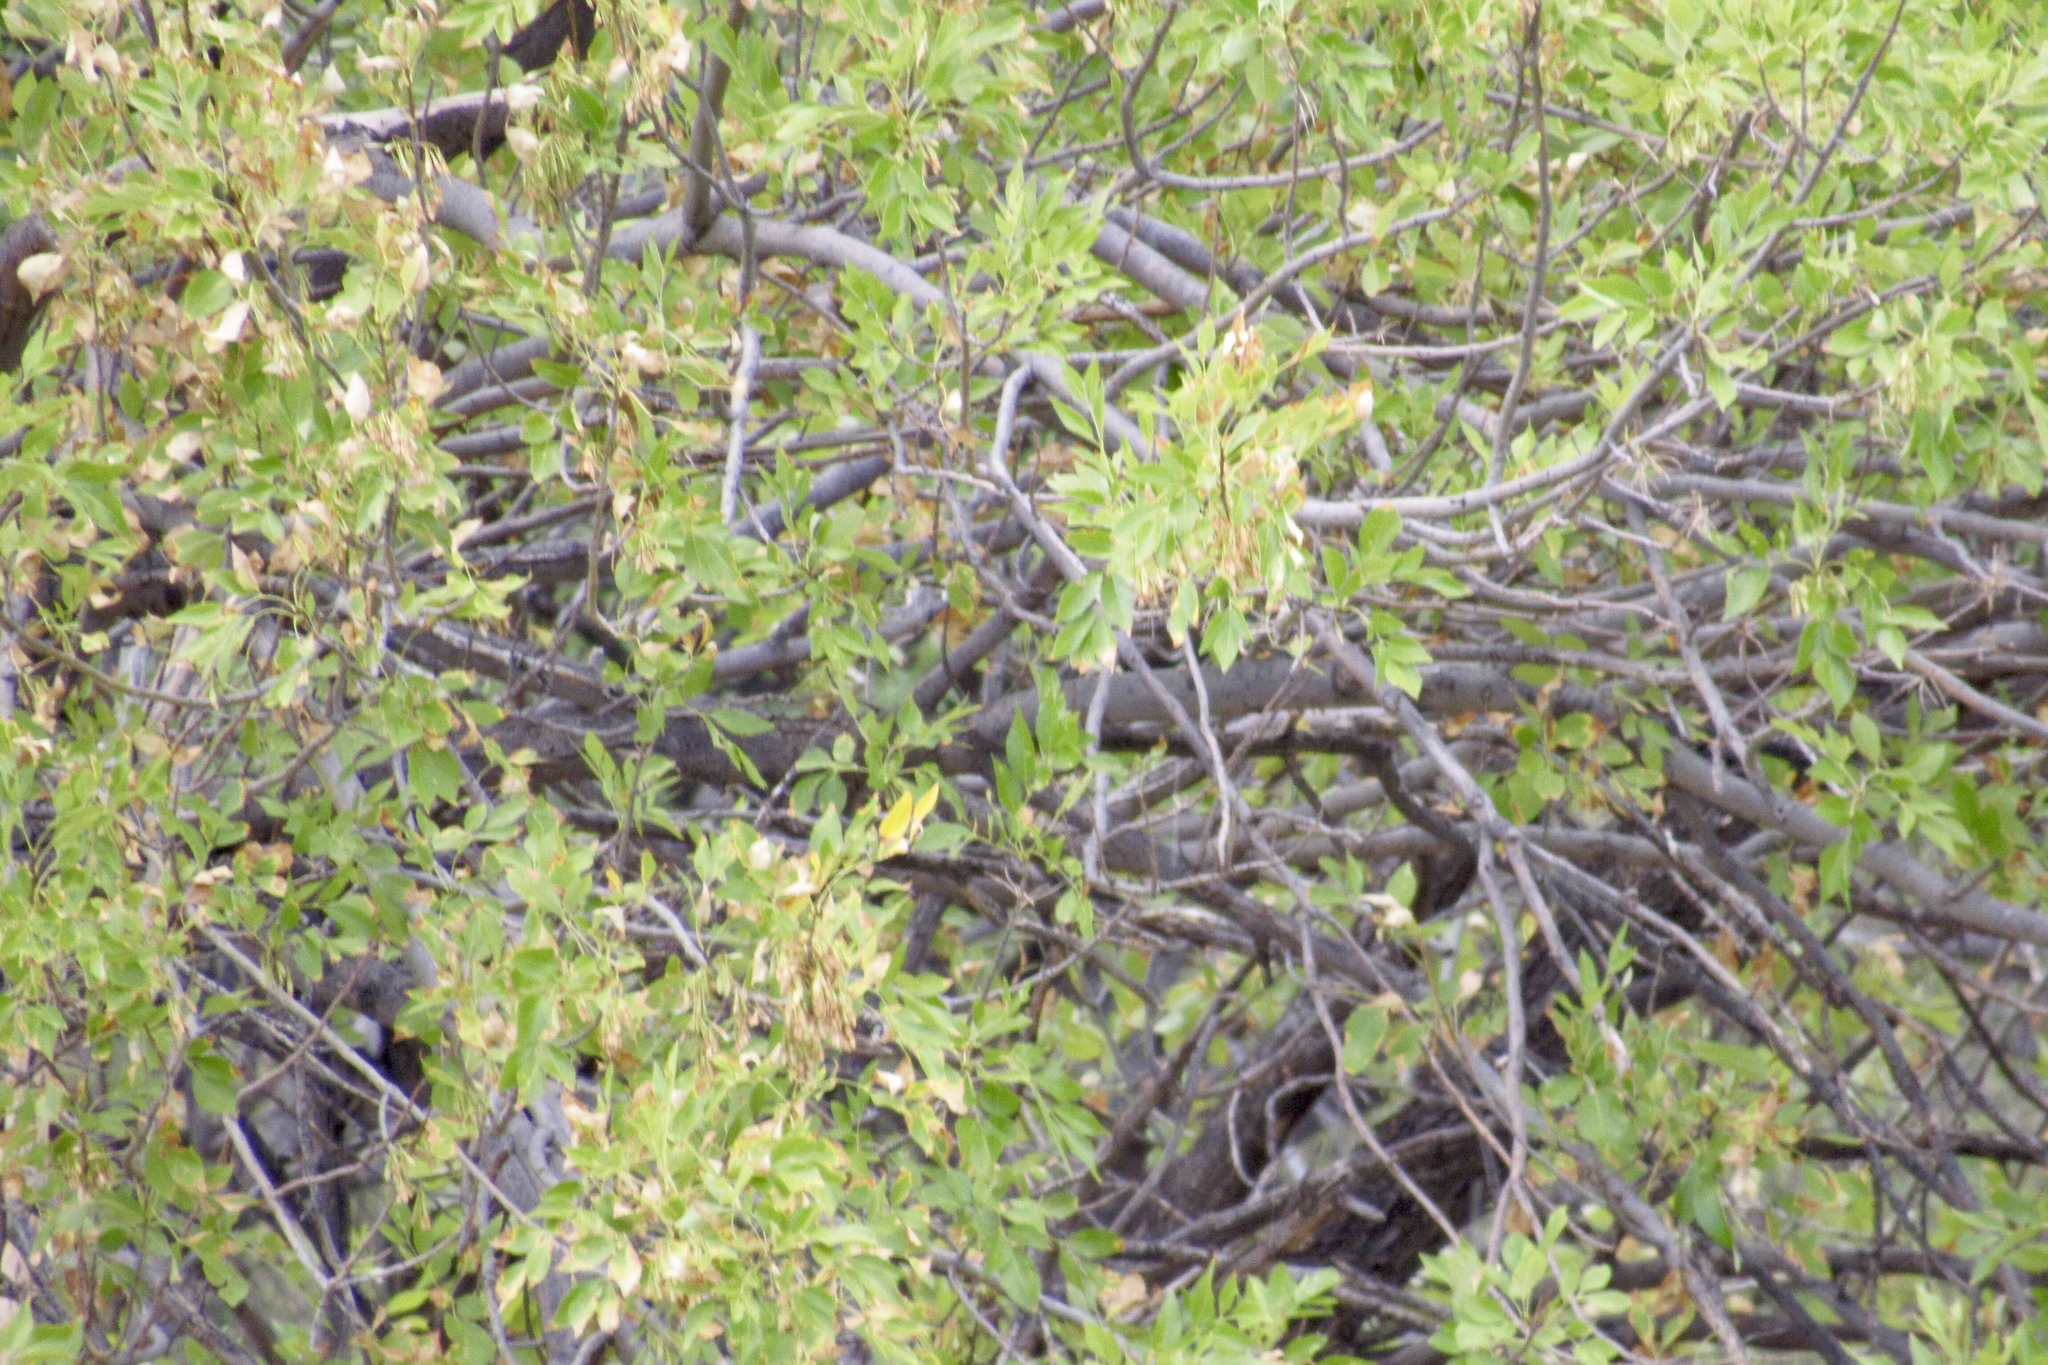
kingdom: Plantae
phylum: Tracheophyta
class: Magnoliopsida
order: Lamiales
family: Oleaceae
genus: Fraxinus
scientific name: Fraxinus velutina
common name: Arizon ash
